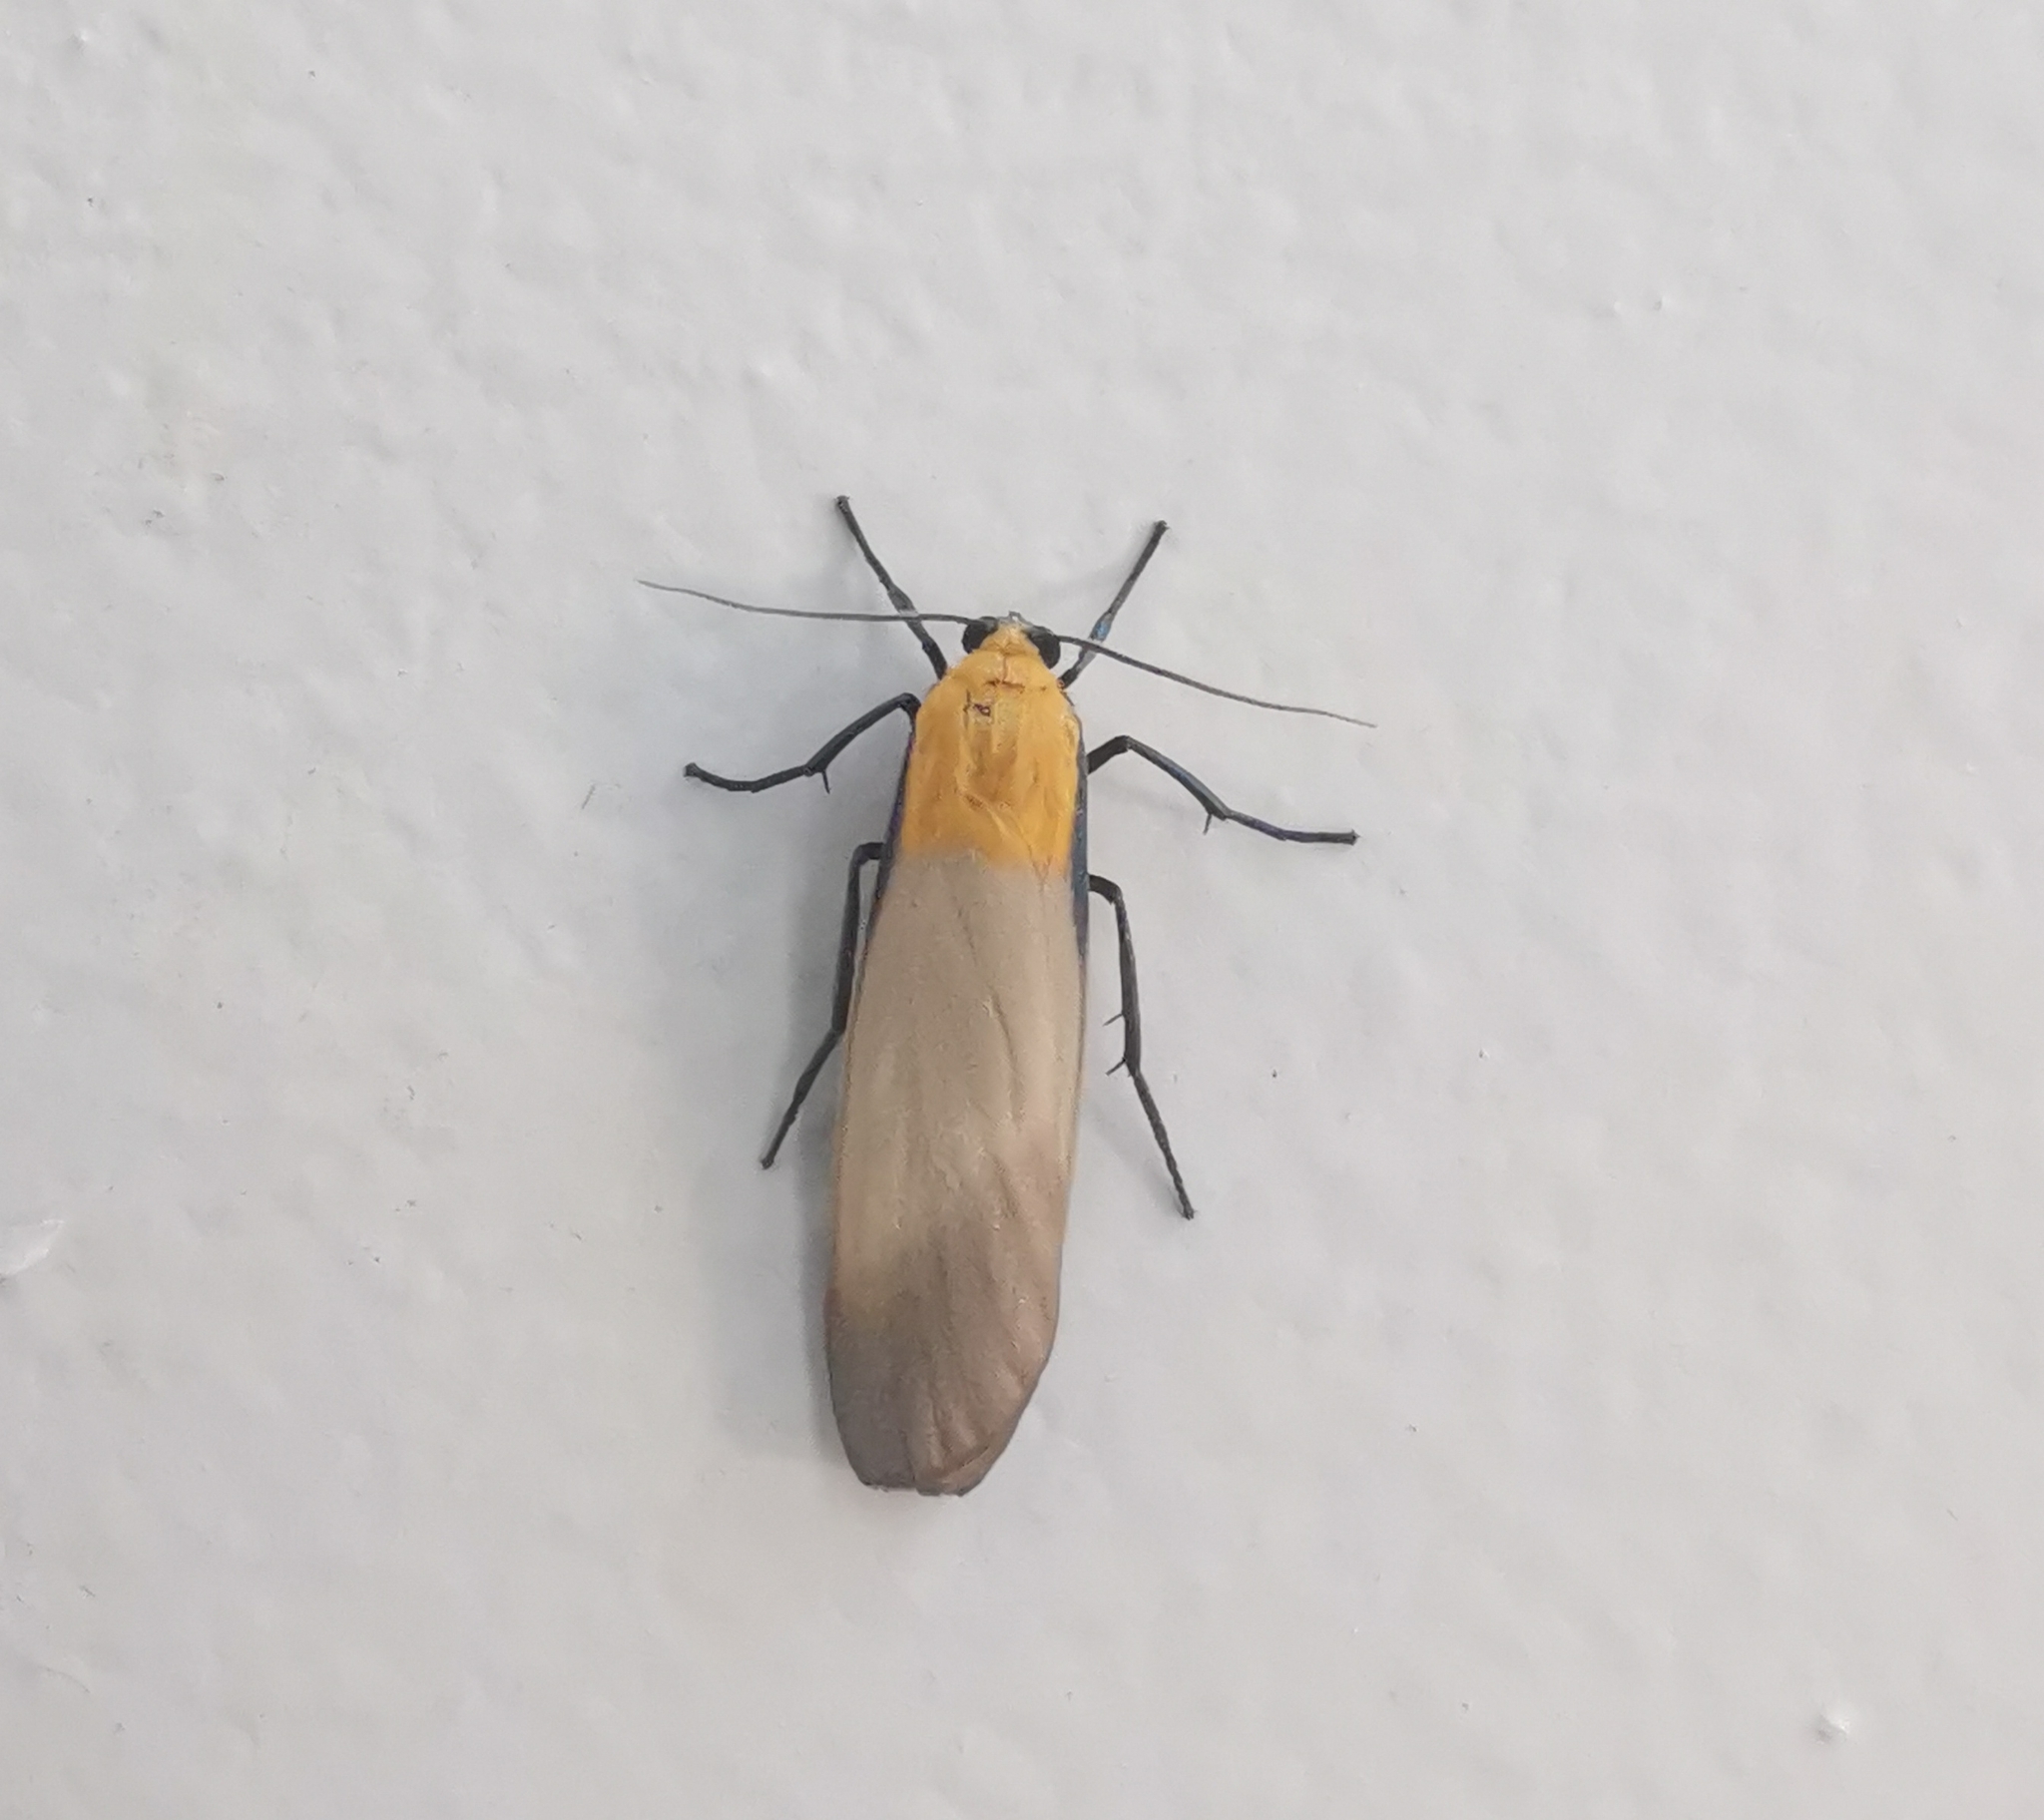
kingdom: Animalia
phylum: Arthropoda
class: Insecta
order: Lepidoptera
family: Erebidae
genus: Lithosia
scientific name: Lithosia quadra
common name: Four-spotted footman
